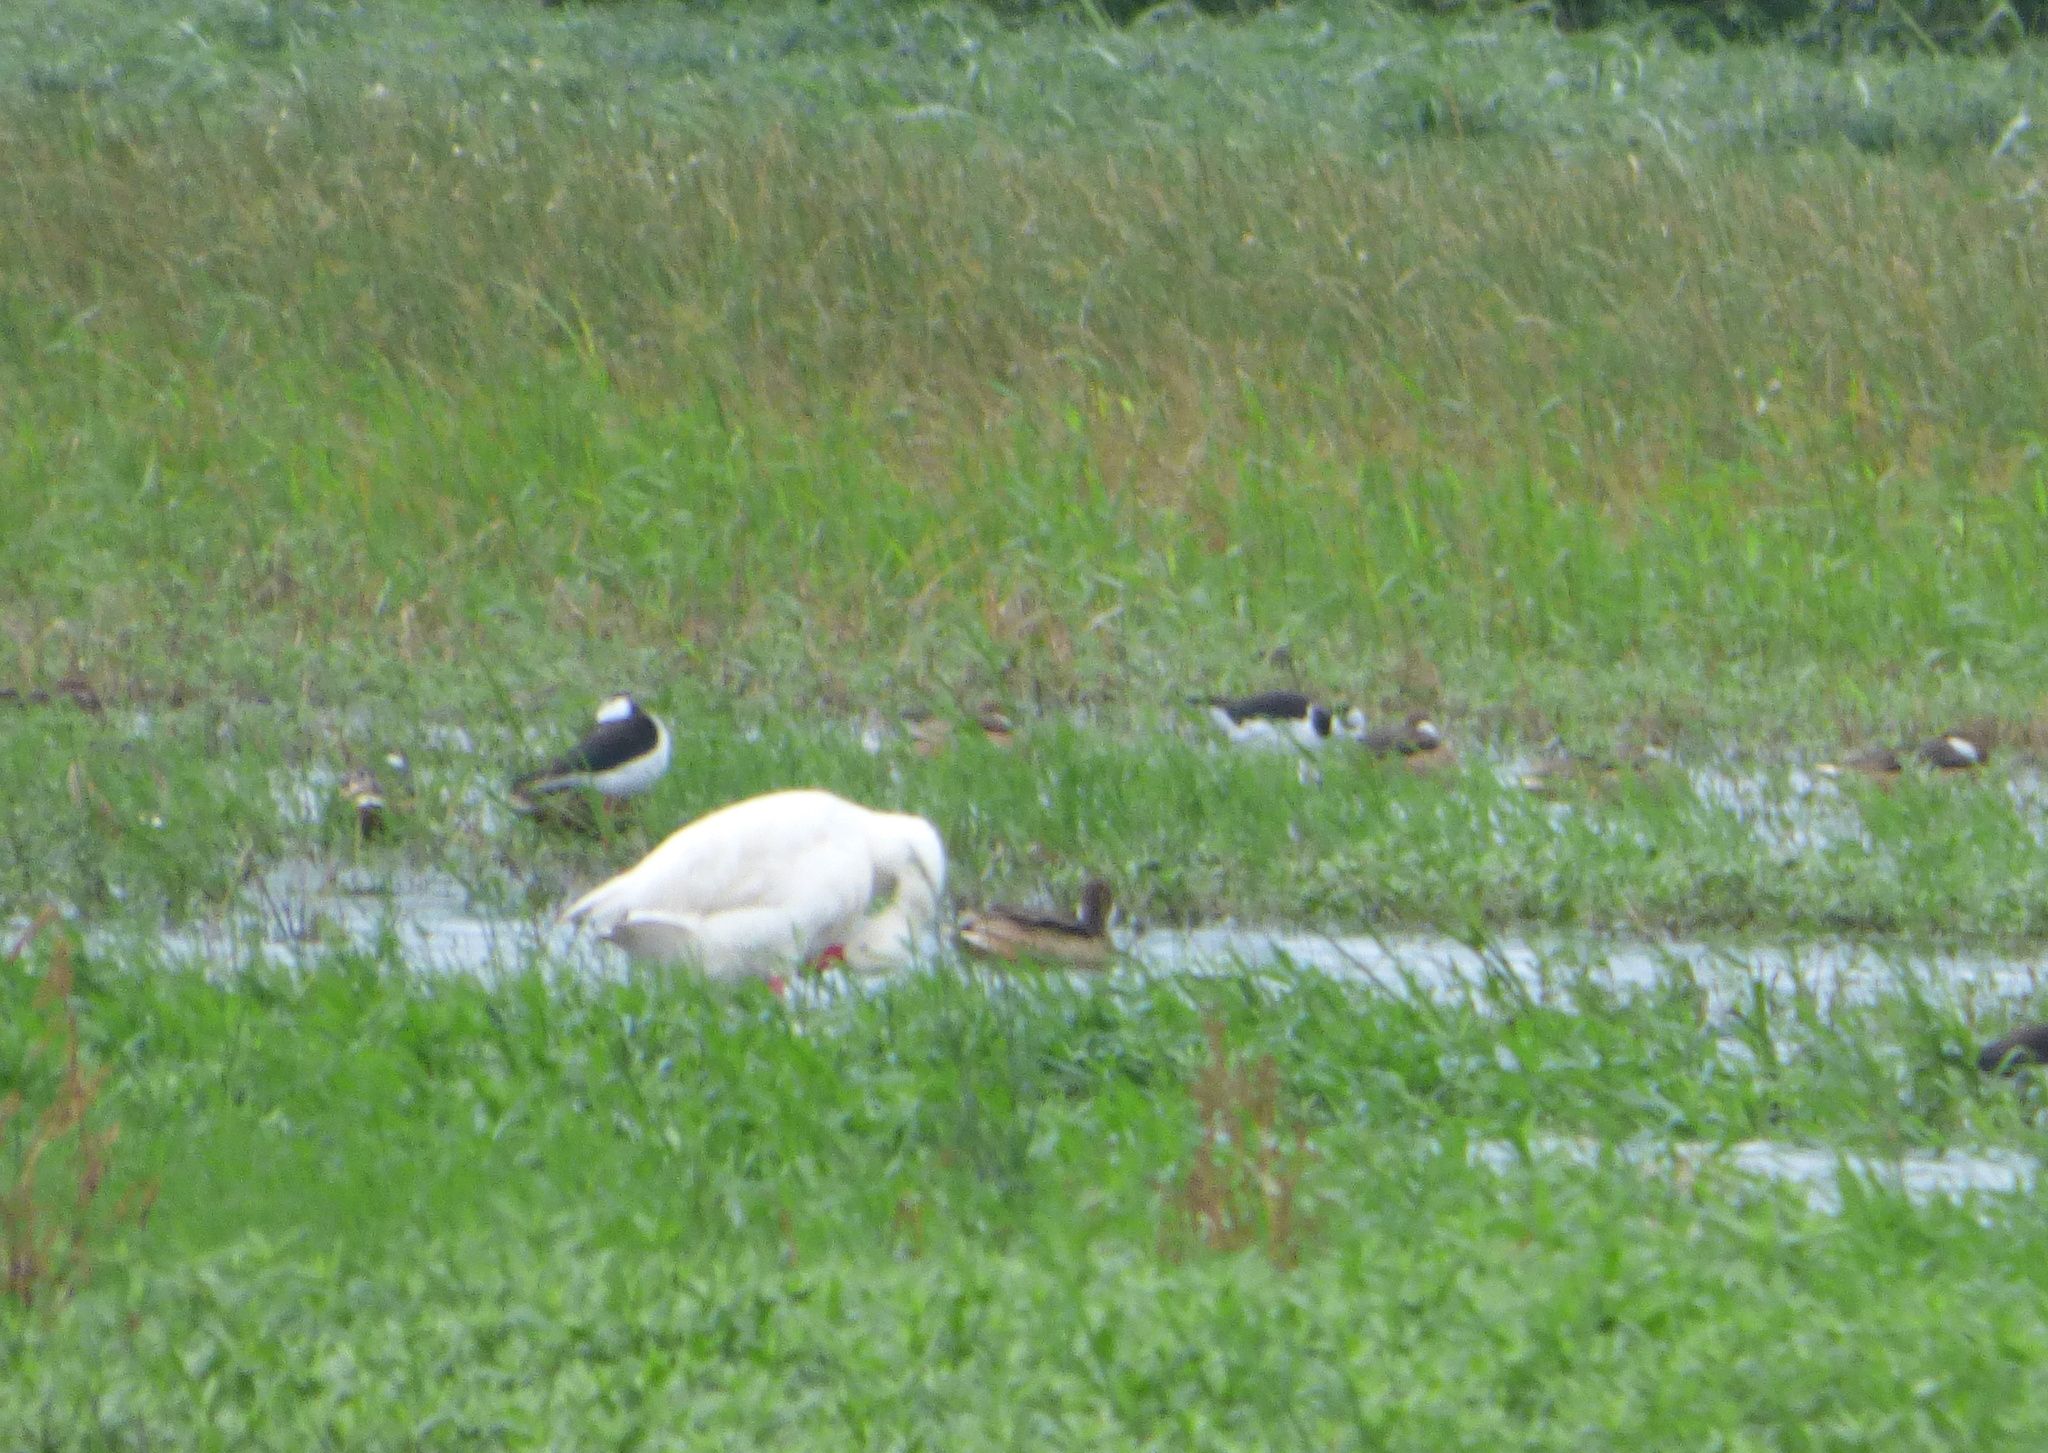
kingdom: Animalia
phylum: Chordata
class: Aves
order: Anseriformes
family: Anatidae
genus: Coscoroba
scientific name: Coscoroba coscoroba
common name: Coscoroba swan
